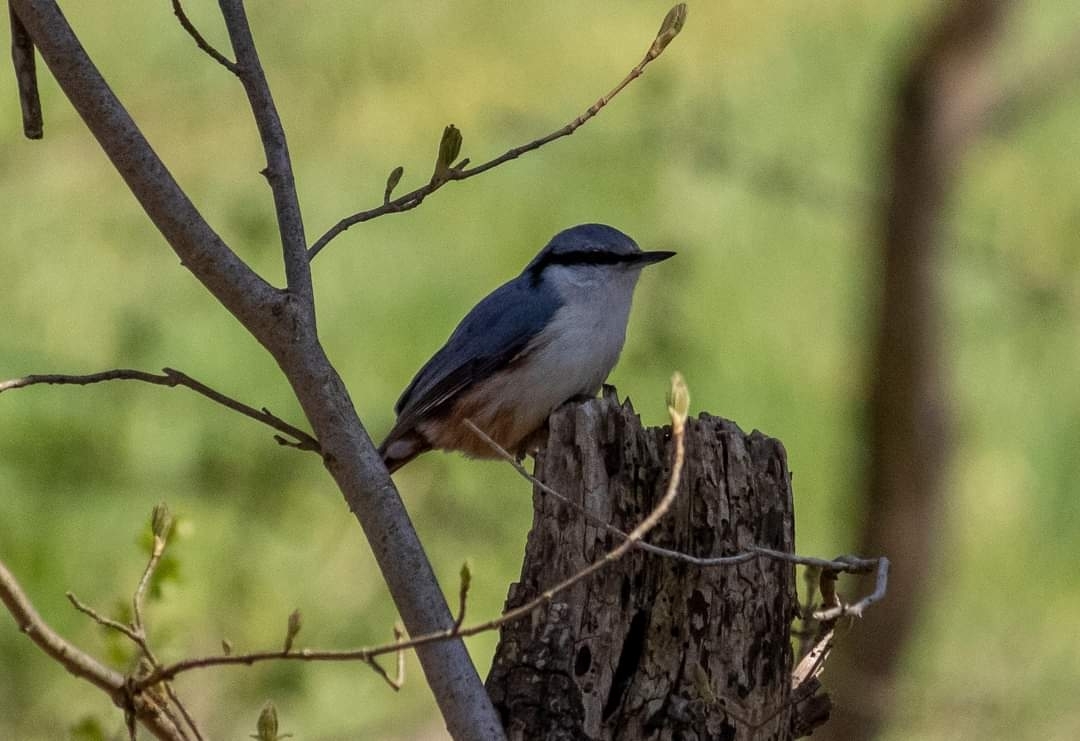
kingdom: Animalia
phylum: Chordata
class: Aves
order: Passeriformes
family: Sittidae
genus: Sitta
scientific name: Sitta europaea
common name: Eurasian nuthatch
